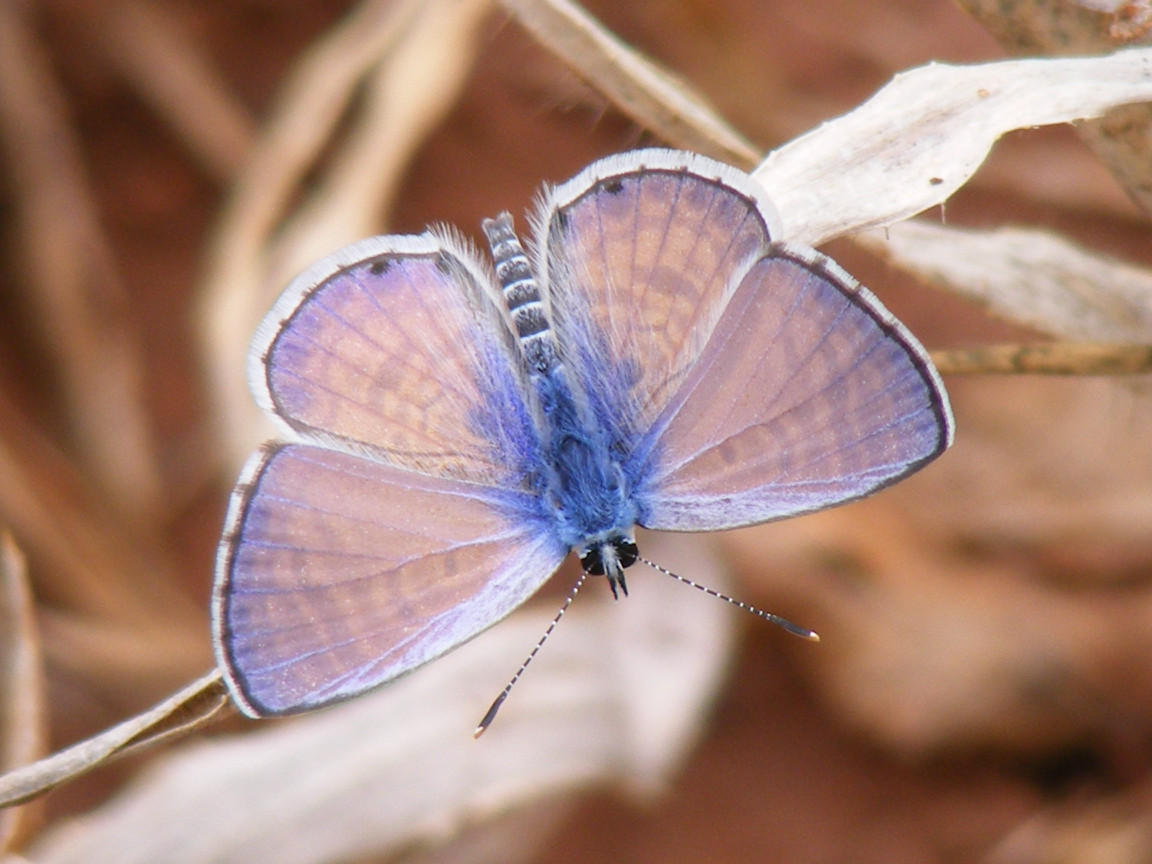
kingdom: Animalia
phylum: Arthropoda
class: Insecta
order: Lepidoptera
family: Lycaenidae
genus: Azanus
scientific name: Azanus jesous
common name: African babul blue
